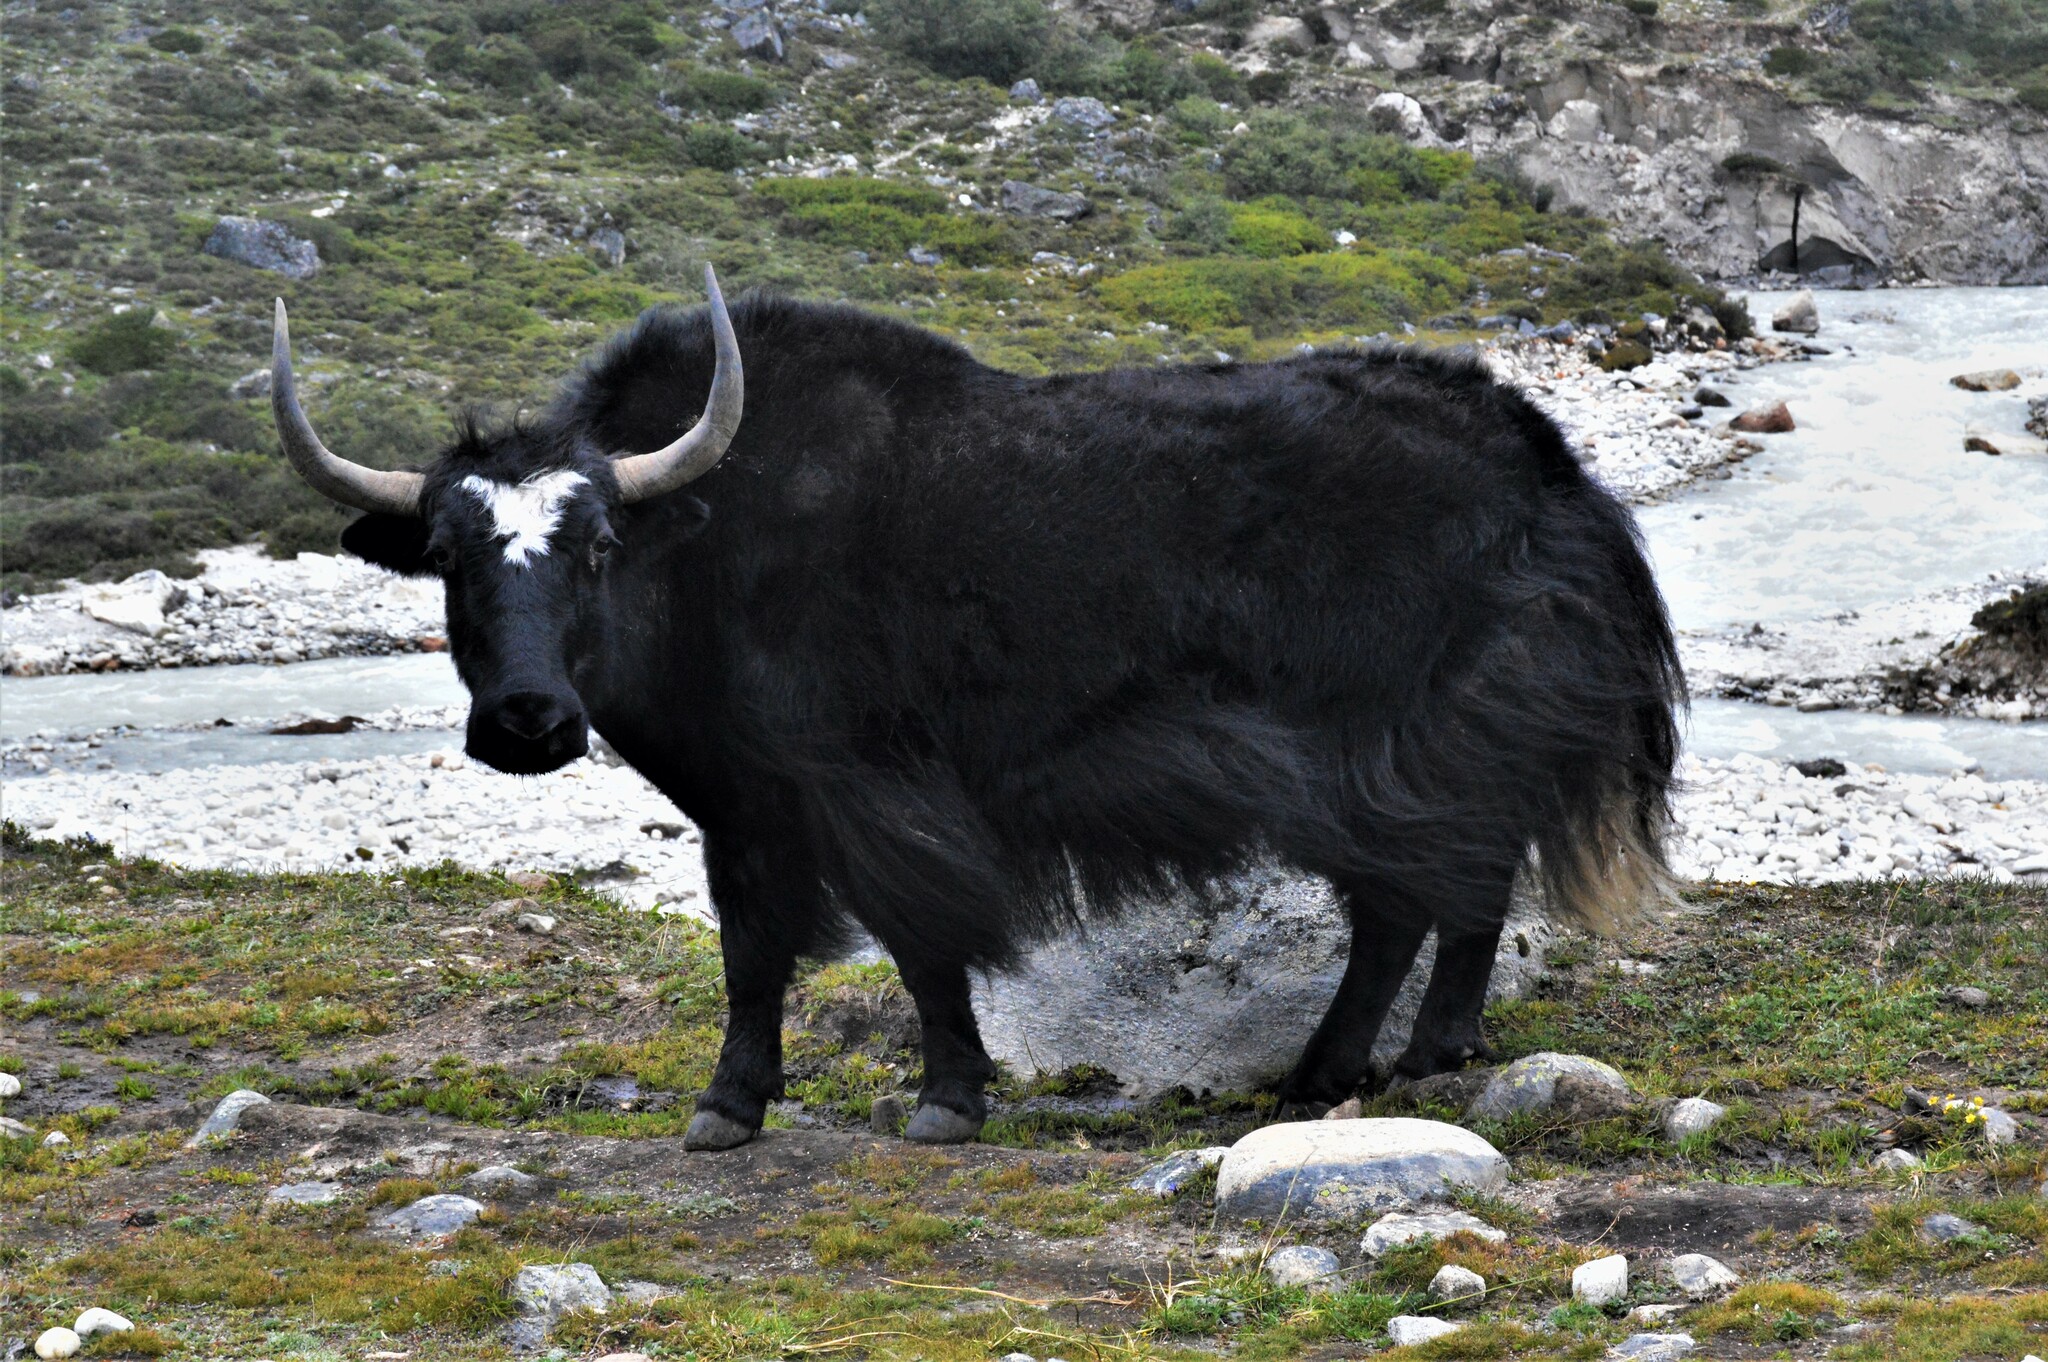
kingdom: Animalia
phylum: Chordata
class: Mammalia
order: Artiodactyla
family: Bovidae
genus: Bos
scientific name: Bos grunniens
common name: Yak
